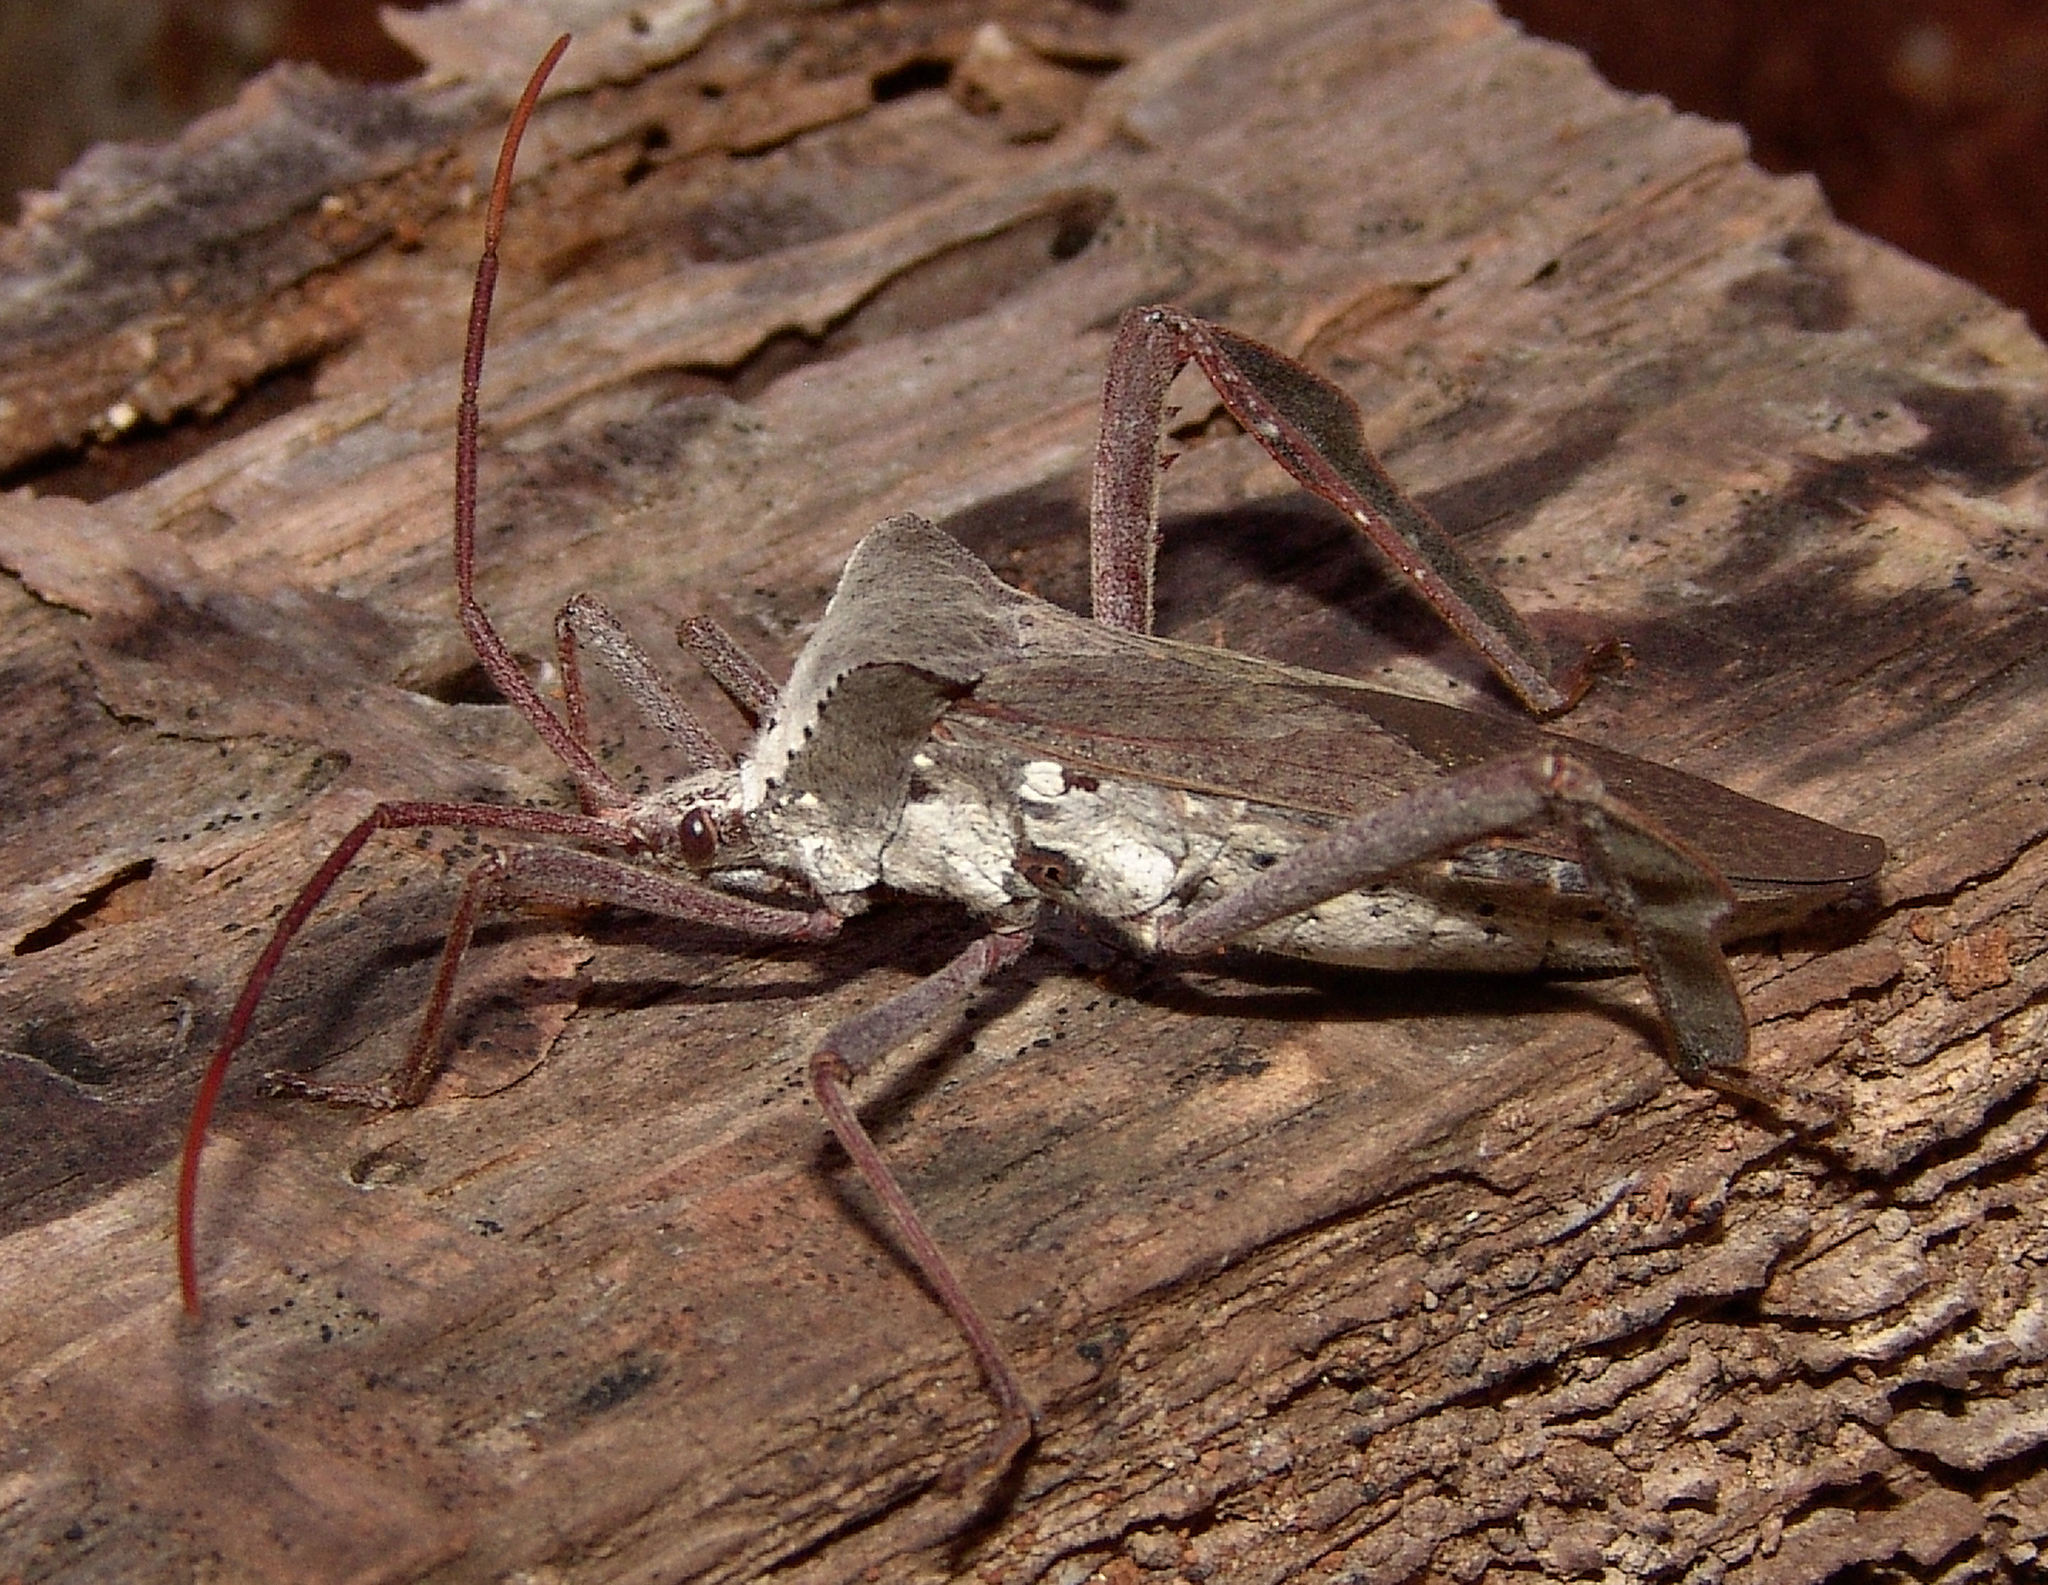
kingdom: Animalia
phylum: Arthropoda
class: Insecta
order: Hemiptera
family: Coreidae
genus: Acanthocephala
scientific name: Acanthocephala declivis
